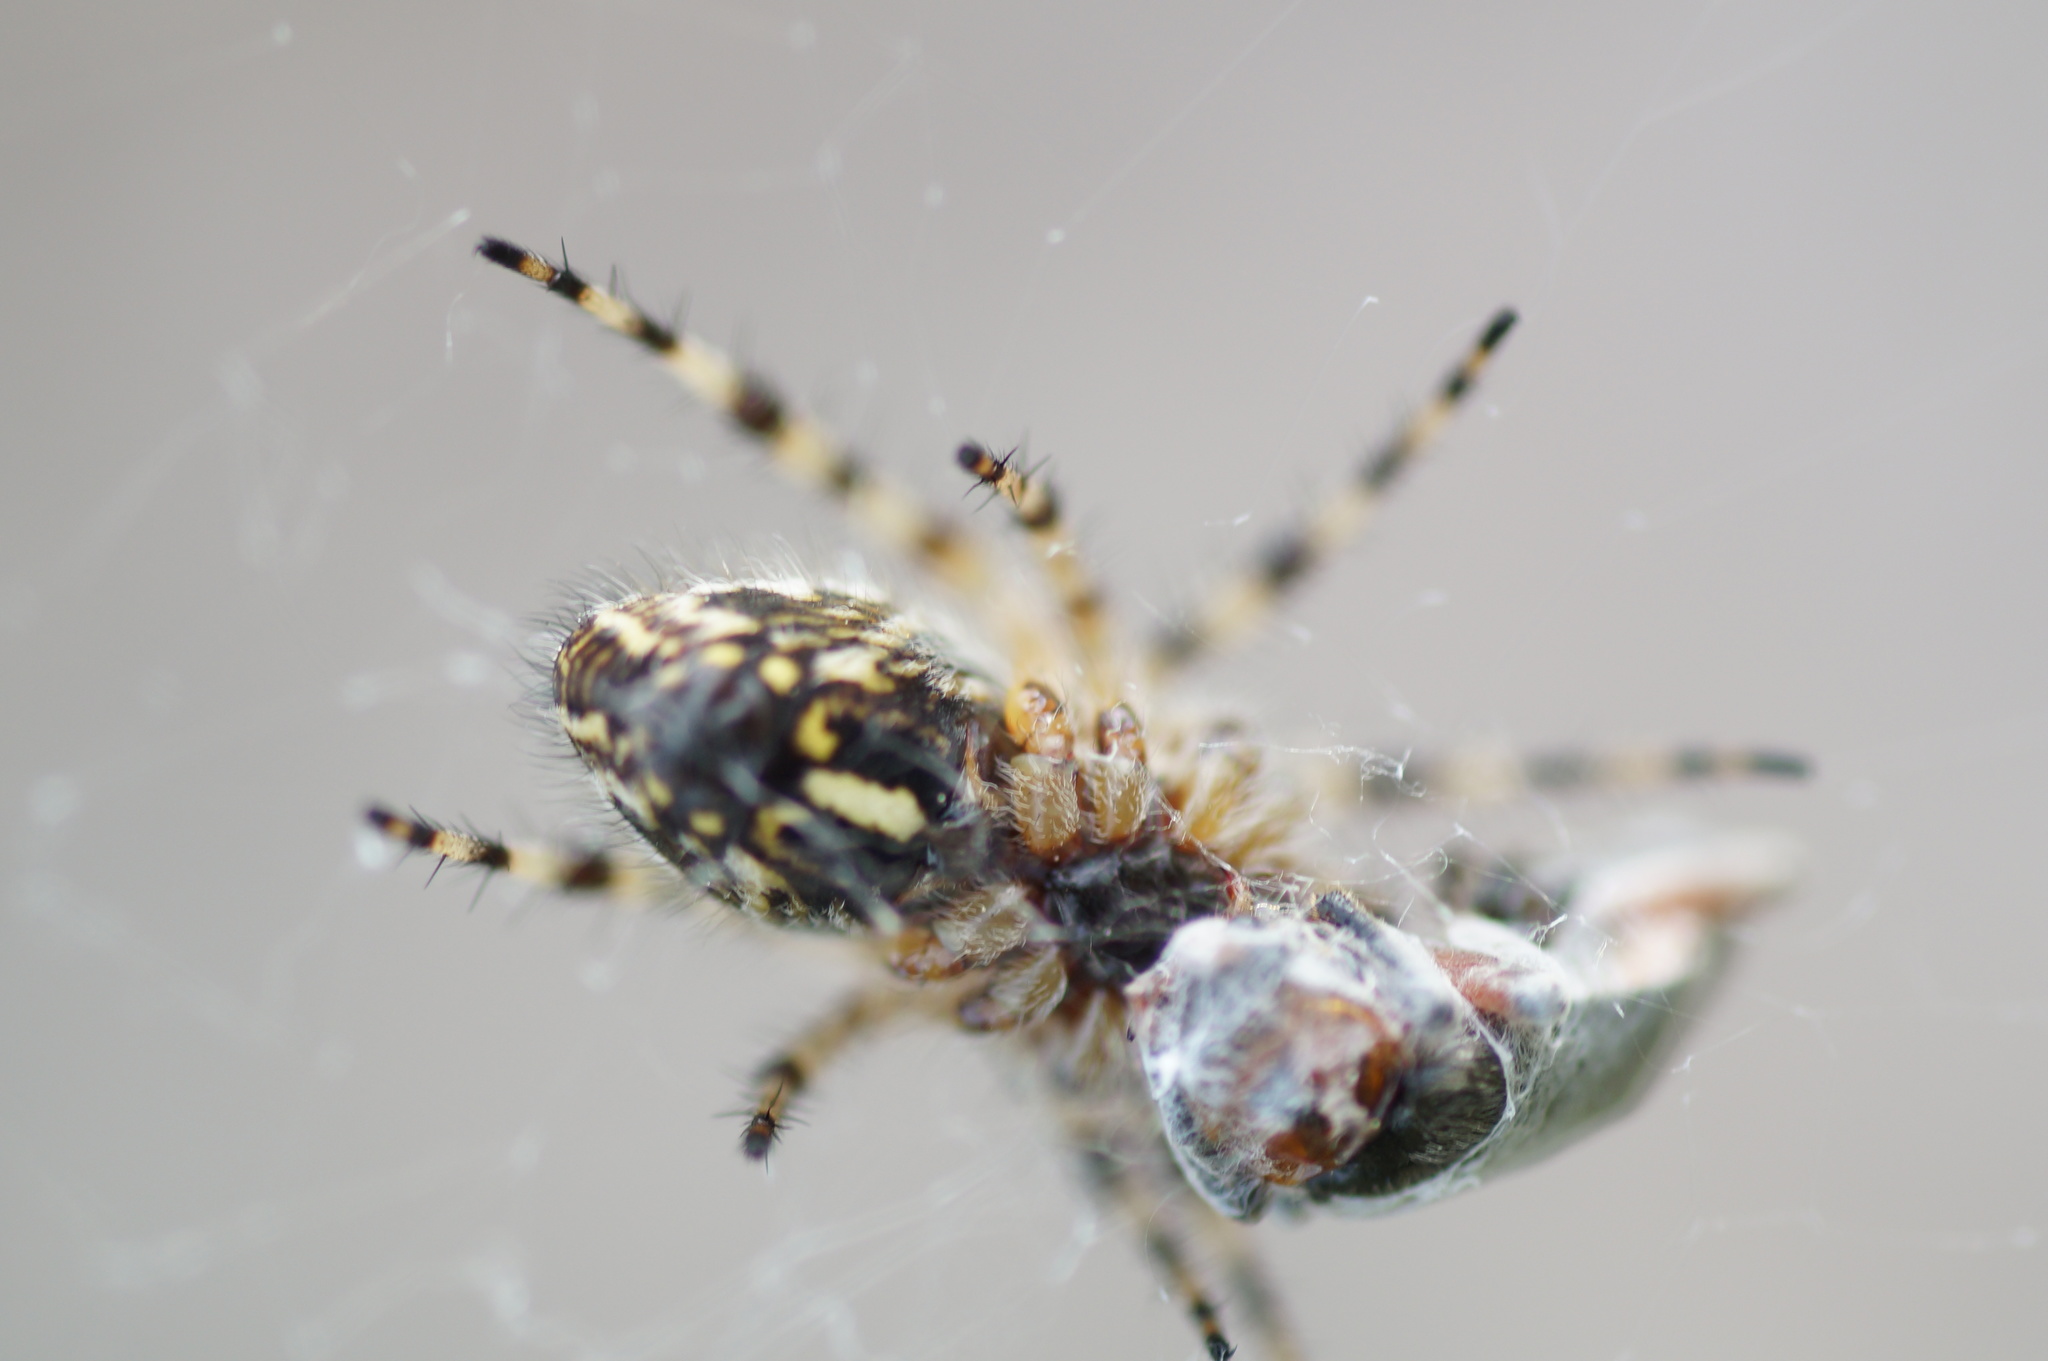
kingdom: Animalia
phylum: Arthropoda
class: Arachnida
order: Araneae
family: Araneidae
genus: Aculepeira
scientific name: Aculepeira ceropegia
